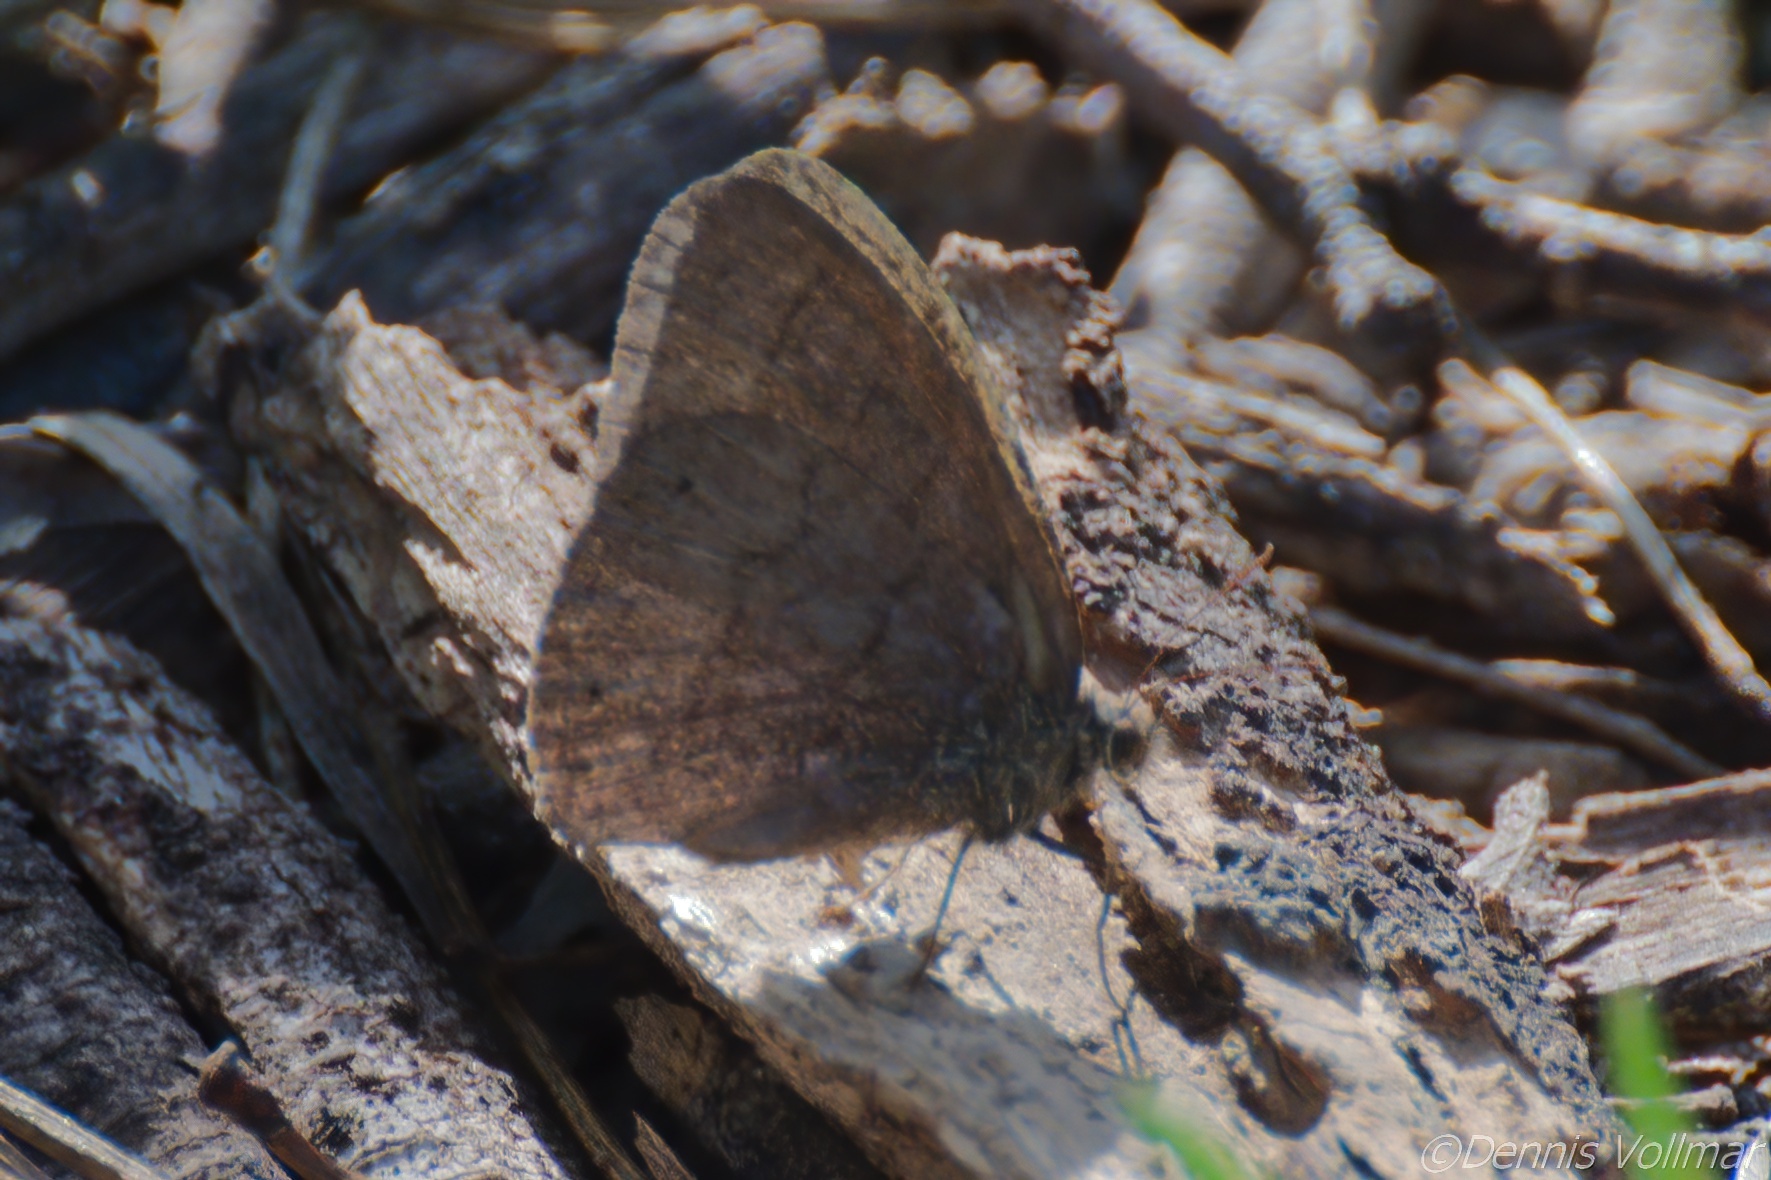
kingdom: Animalia
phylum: Arthropoda
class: Insecta
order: Lepidoptera
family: Nymphalidae
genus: Hermeuptychia
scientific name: Hermeuptychia hermybius
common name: South texas satyr
